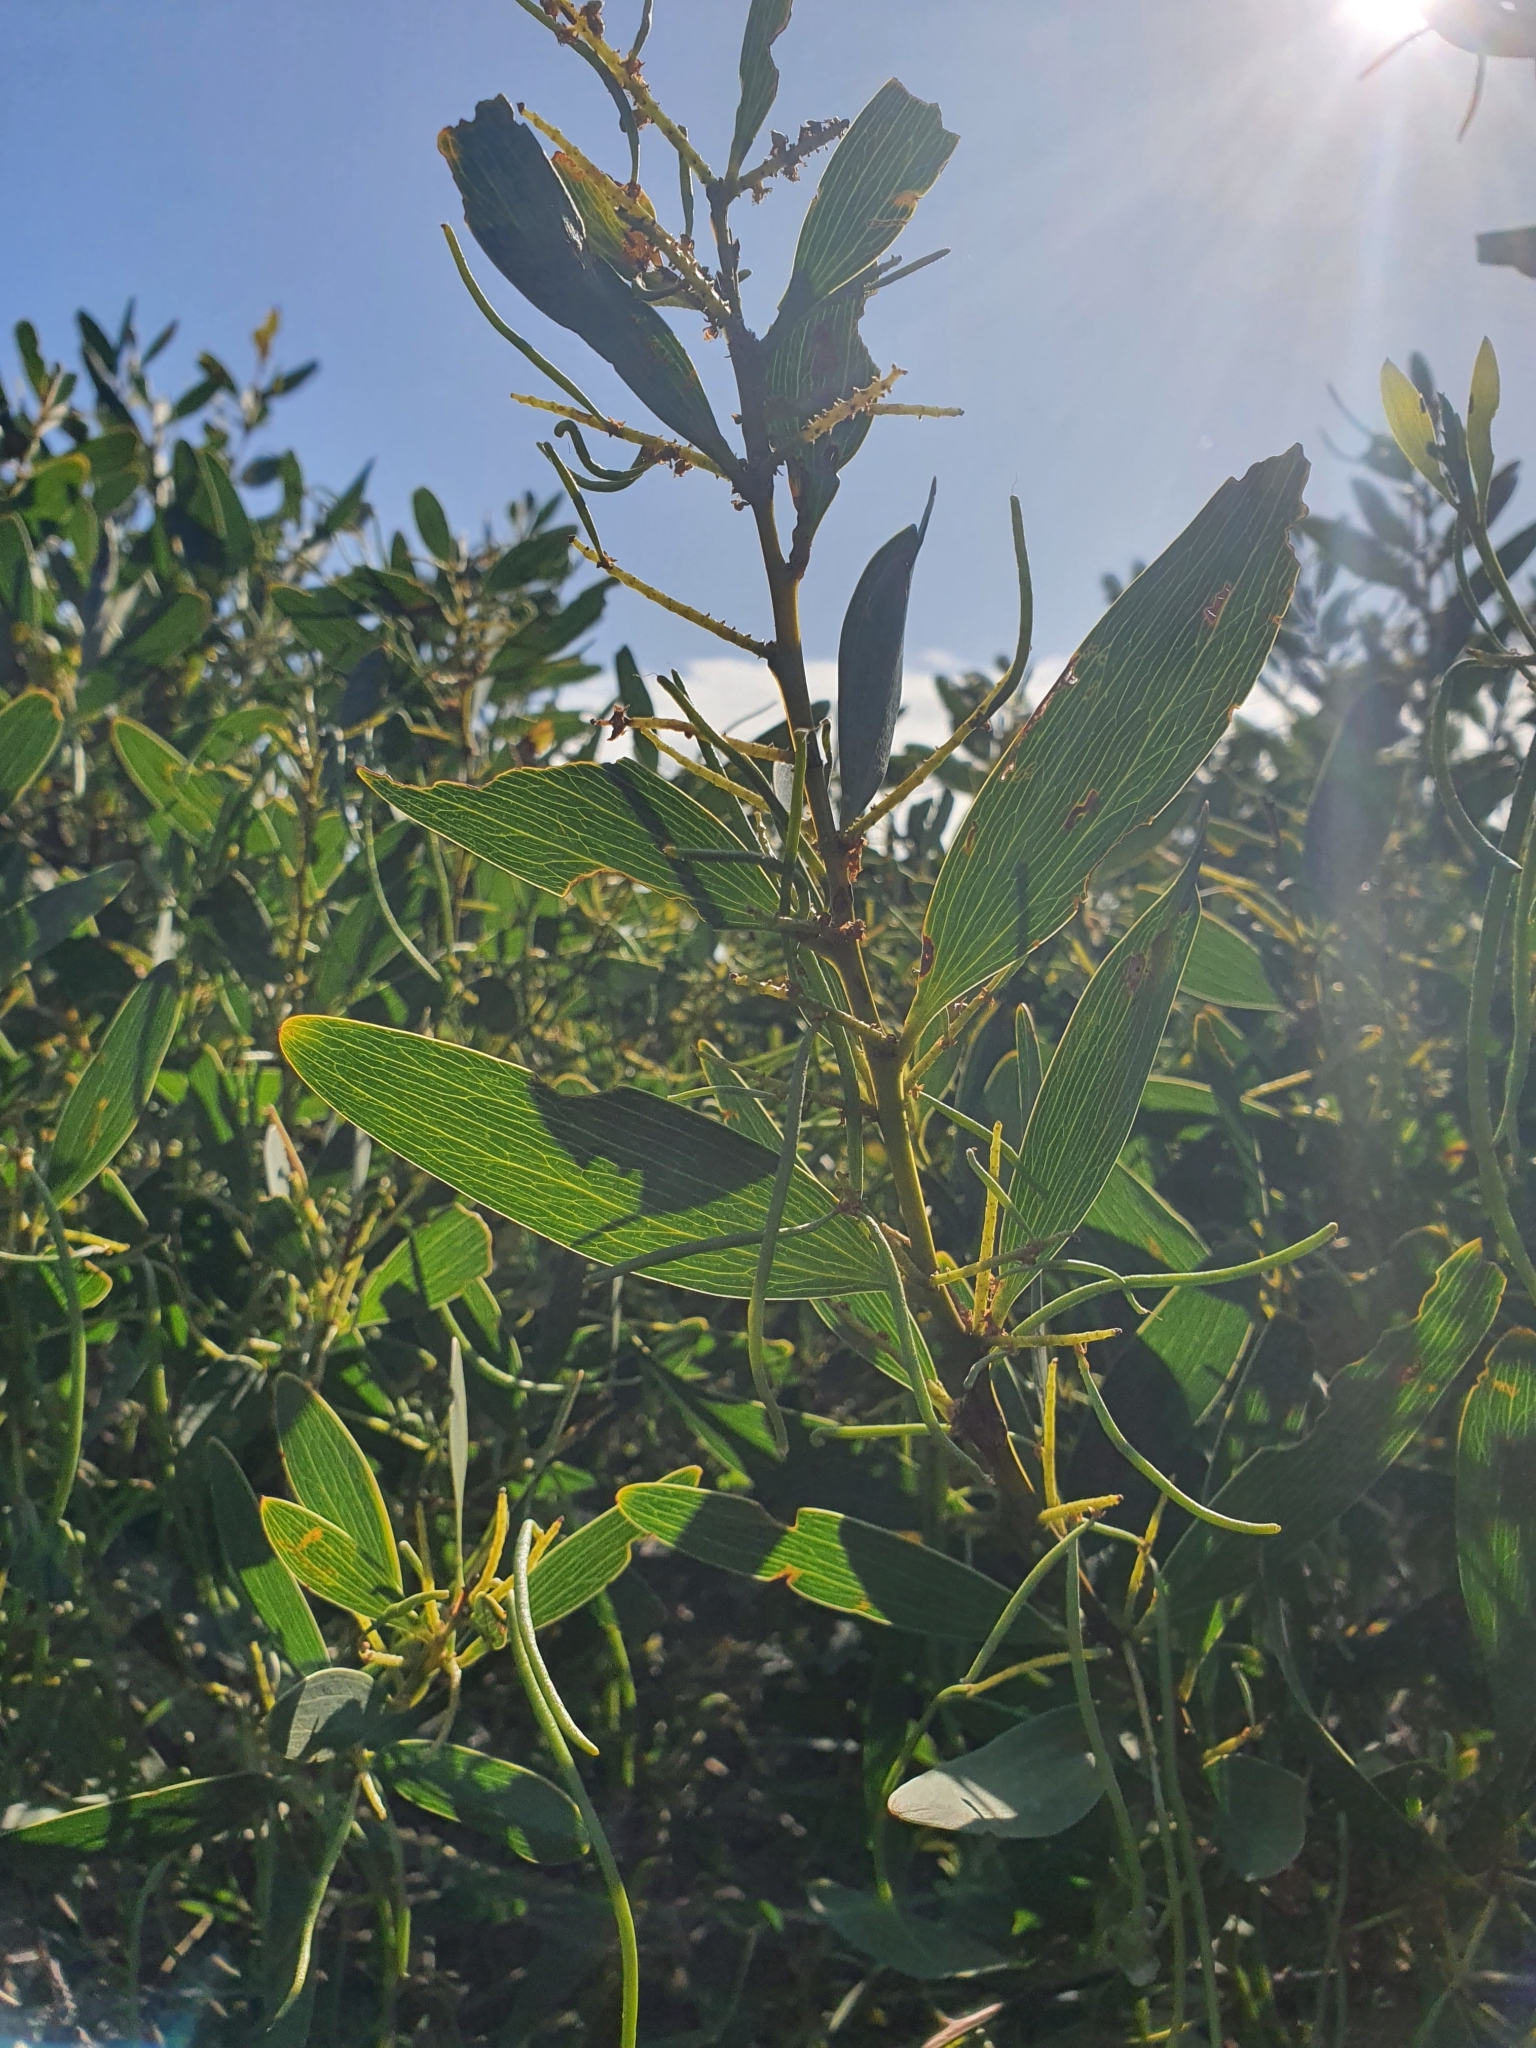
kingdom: Plantae
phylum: Tracheophyta
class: Magnoliopsida
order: Fabales
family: Fabaceae
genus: Acacia
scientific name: Acacia longifolia
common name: Sydney golden wattle
